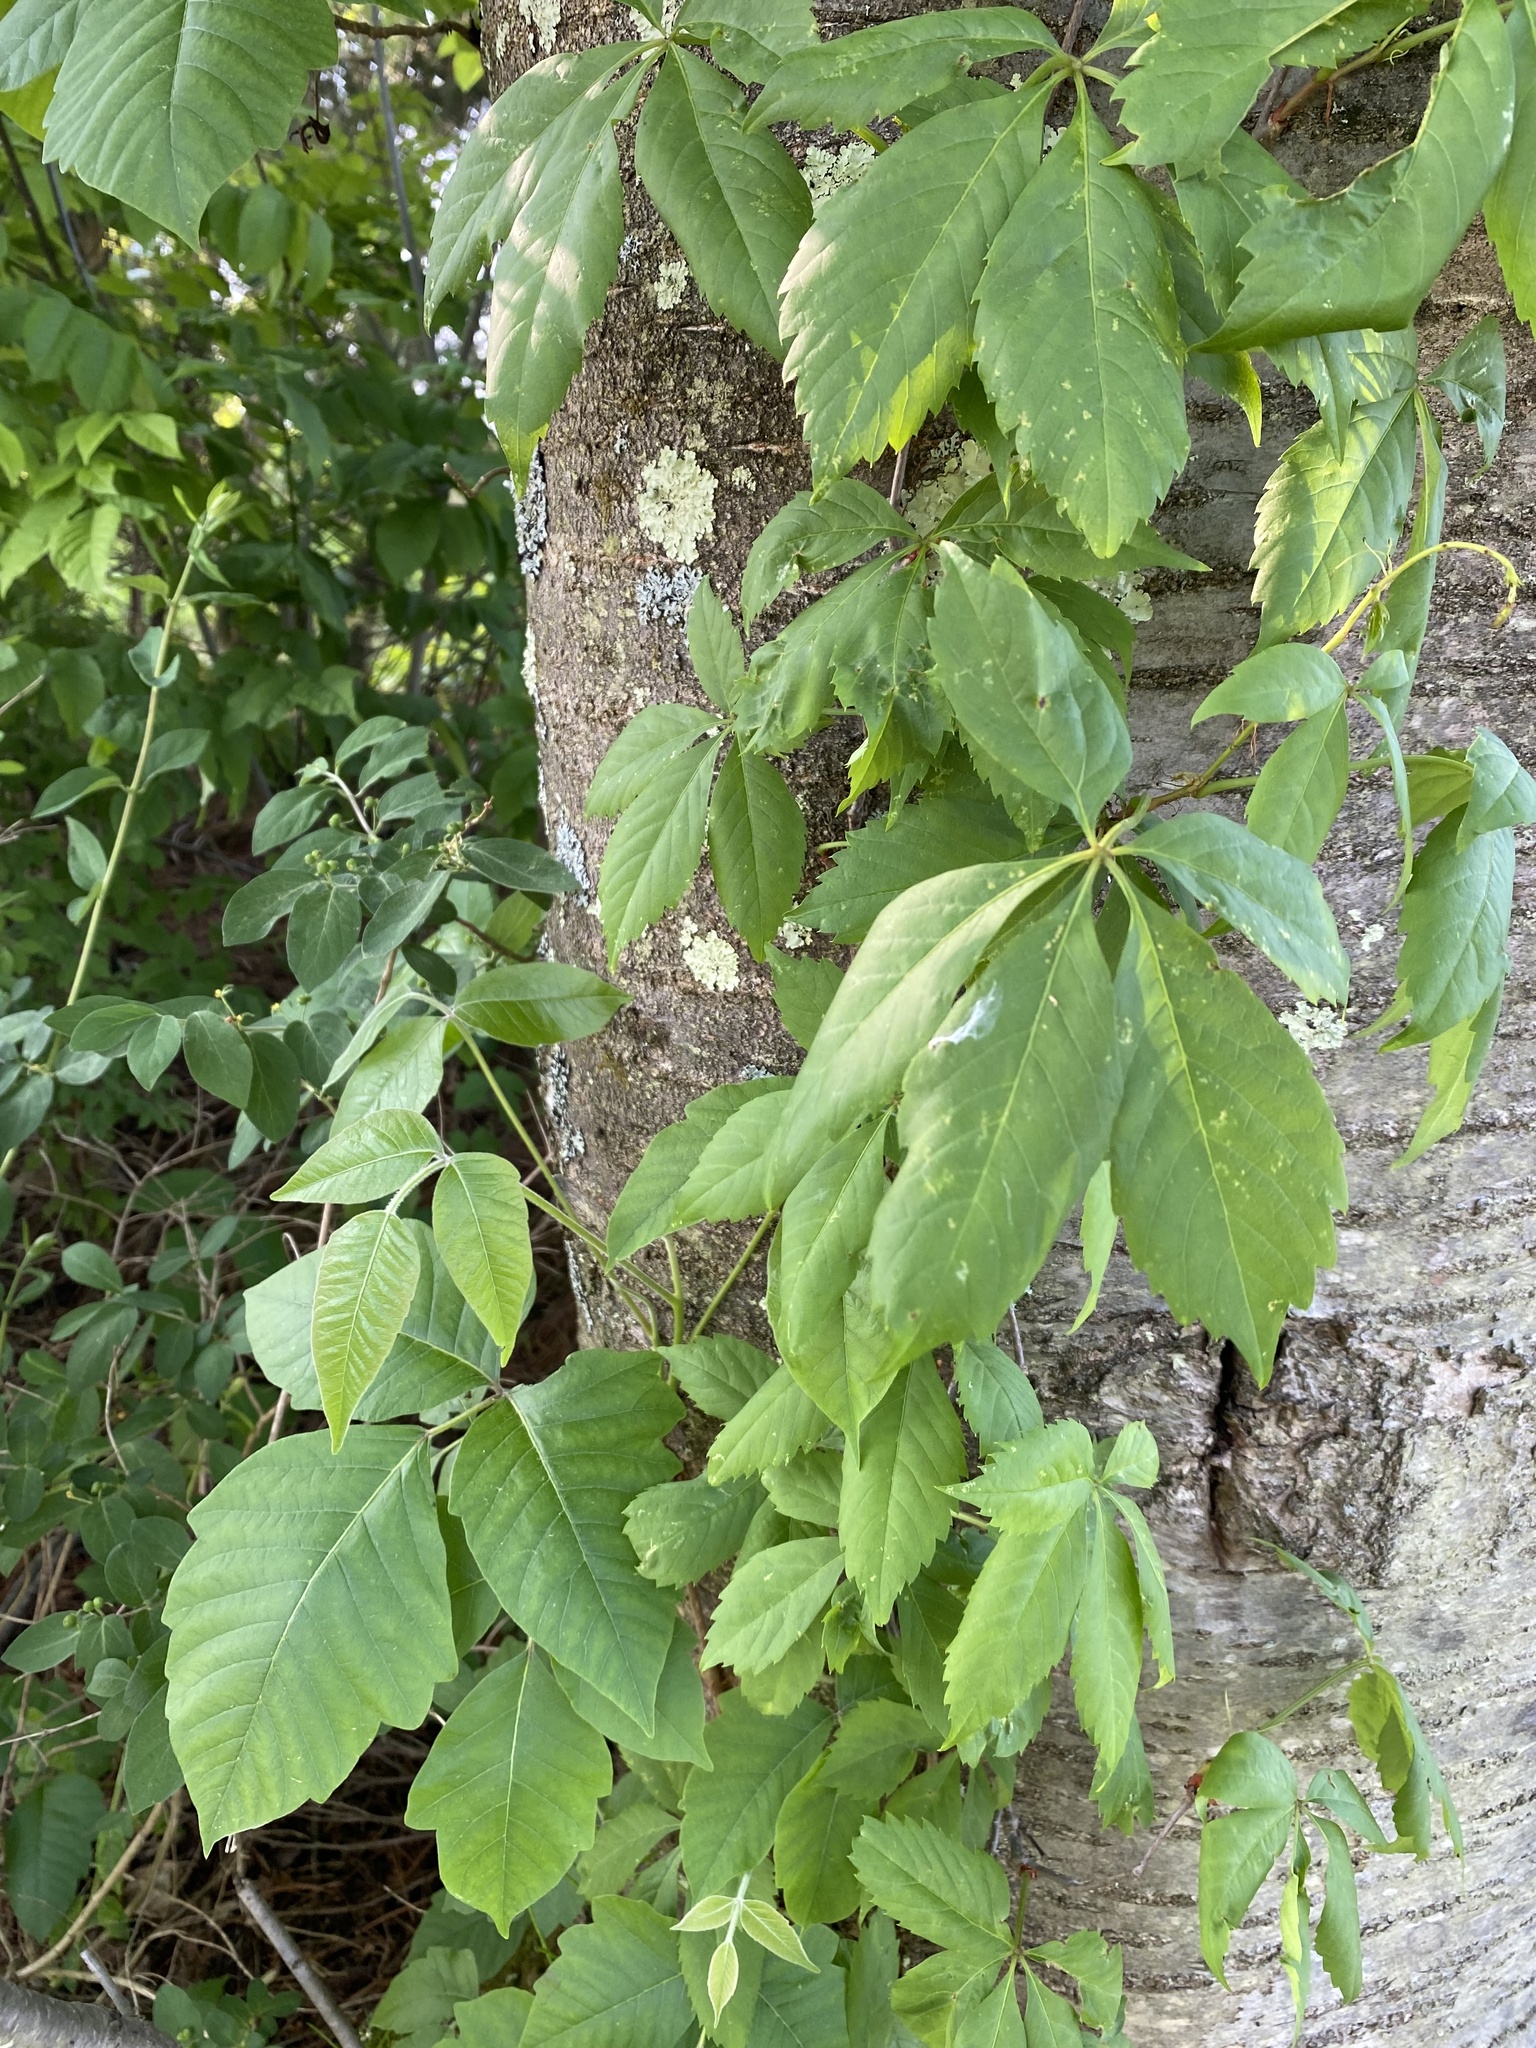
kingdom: Plantae
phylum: Tracheophyta
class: Magnoliopsida
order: Sapindales
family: Anacardiaceae
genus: Toxicodendron
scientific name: Toxicodendron radicans
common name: Poison ivy
